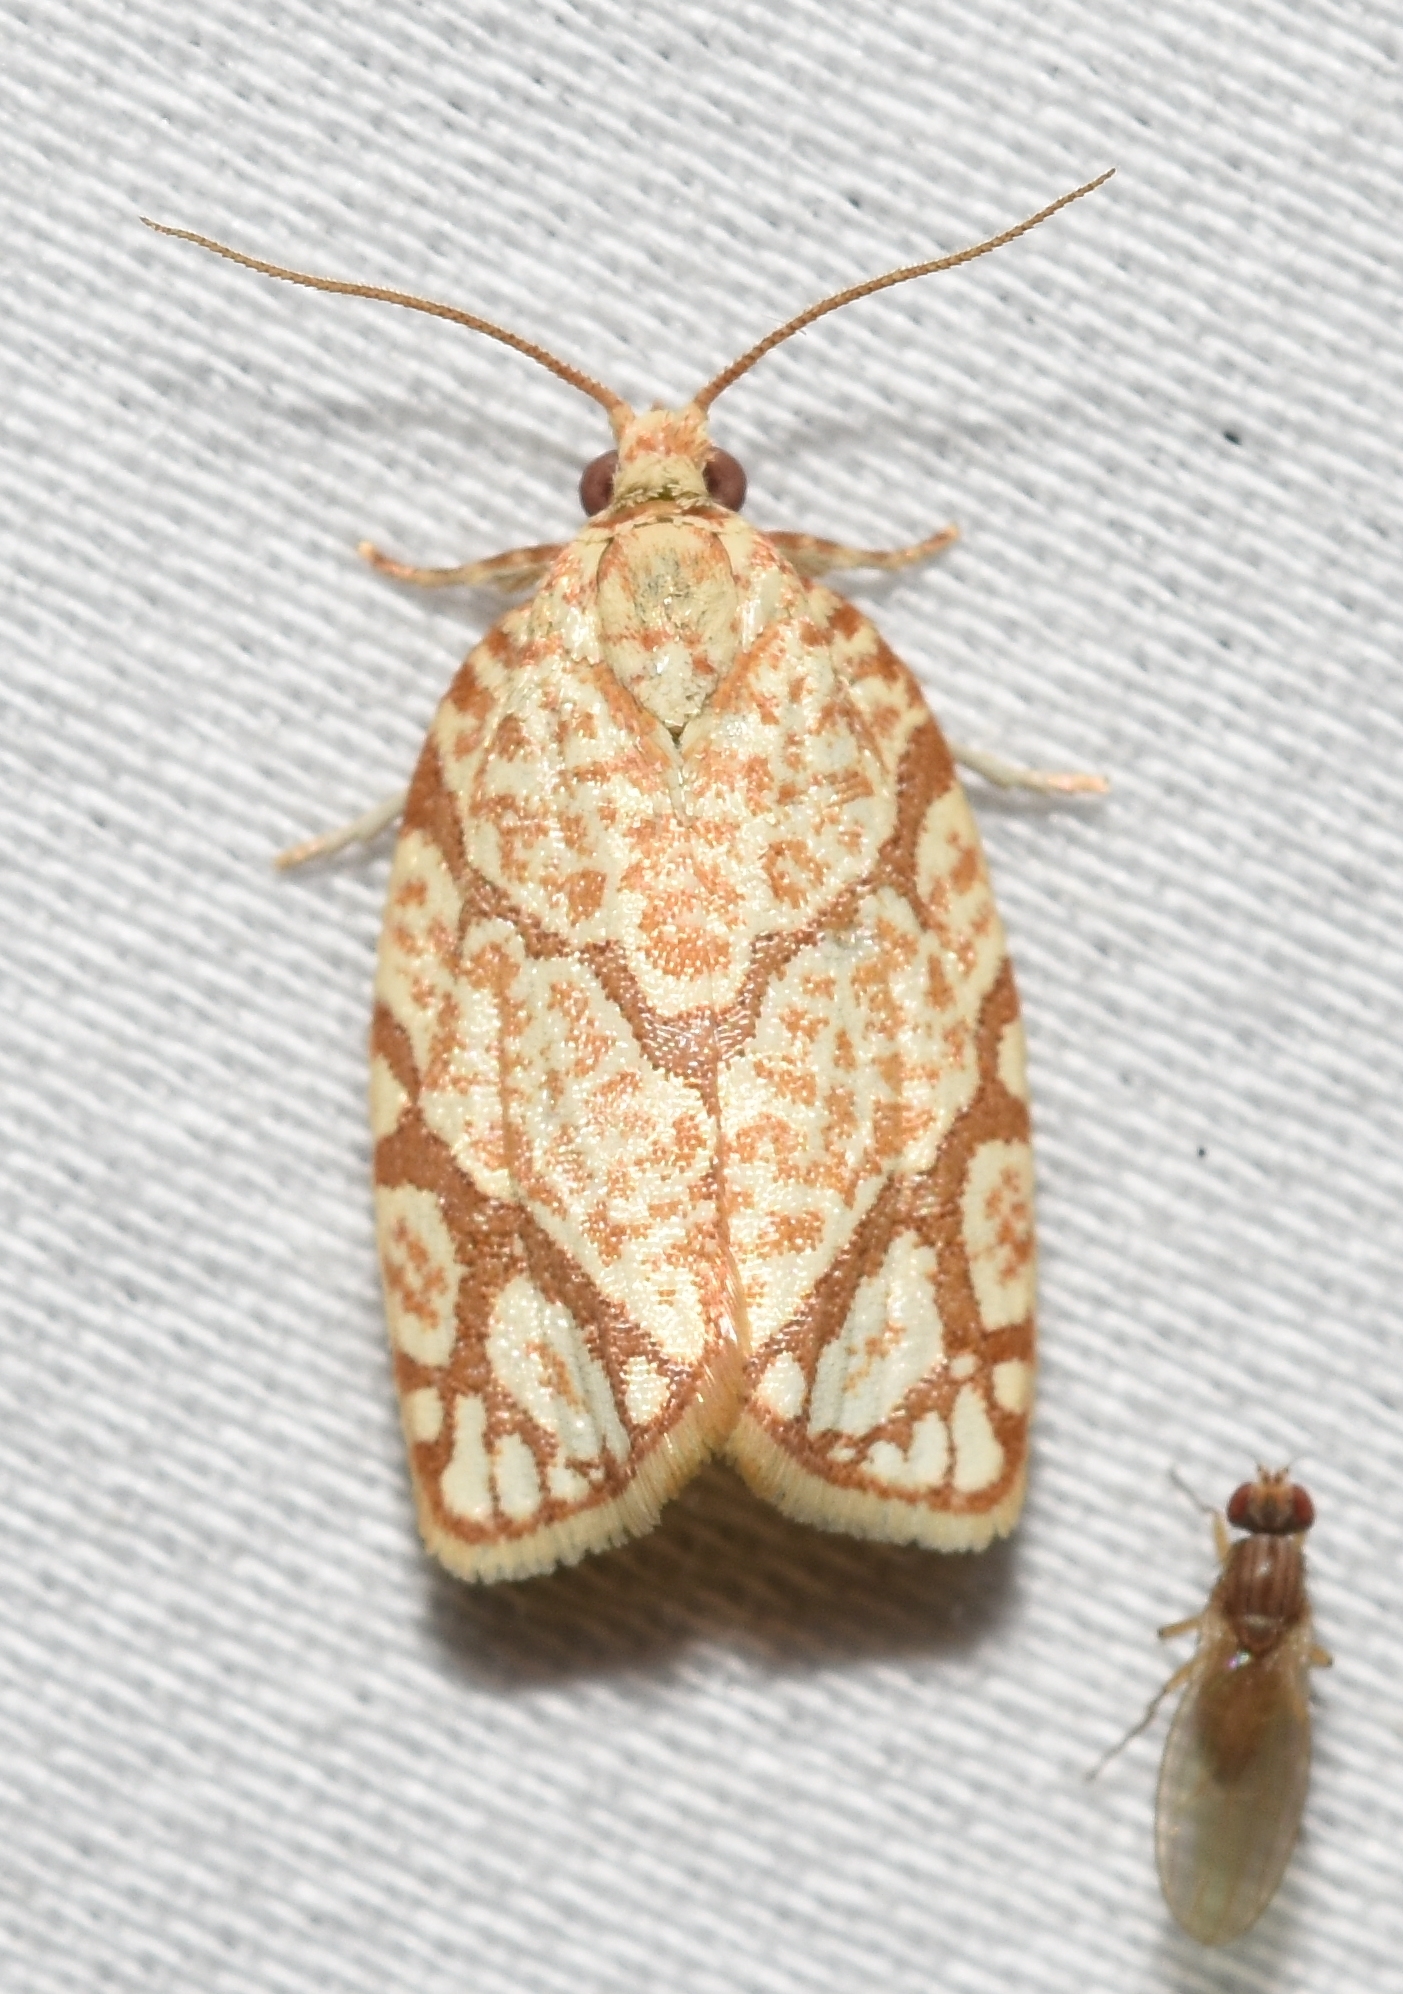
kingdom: Animalia
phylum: Arthropoda
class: Insecta
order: Lepidoptera
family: Tortricidae
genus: Argyrotaenia
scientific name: Argyrotaenia quercifoliana
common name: Yellow-winged oak leafroller moth
